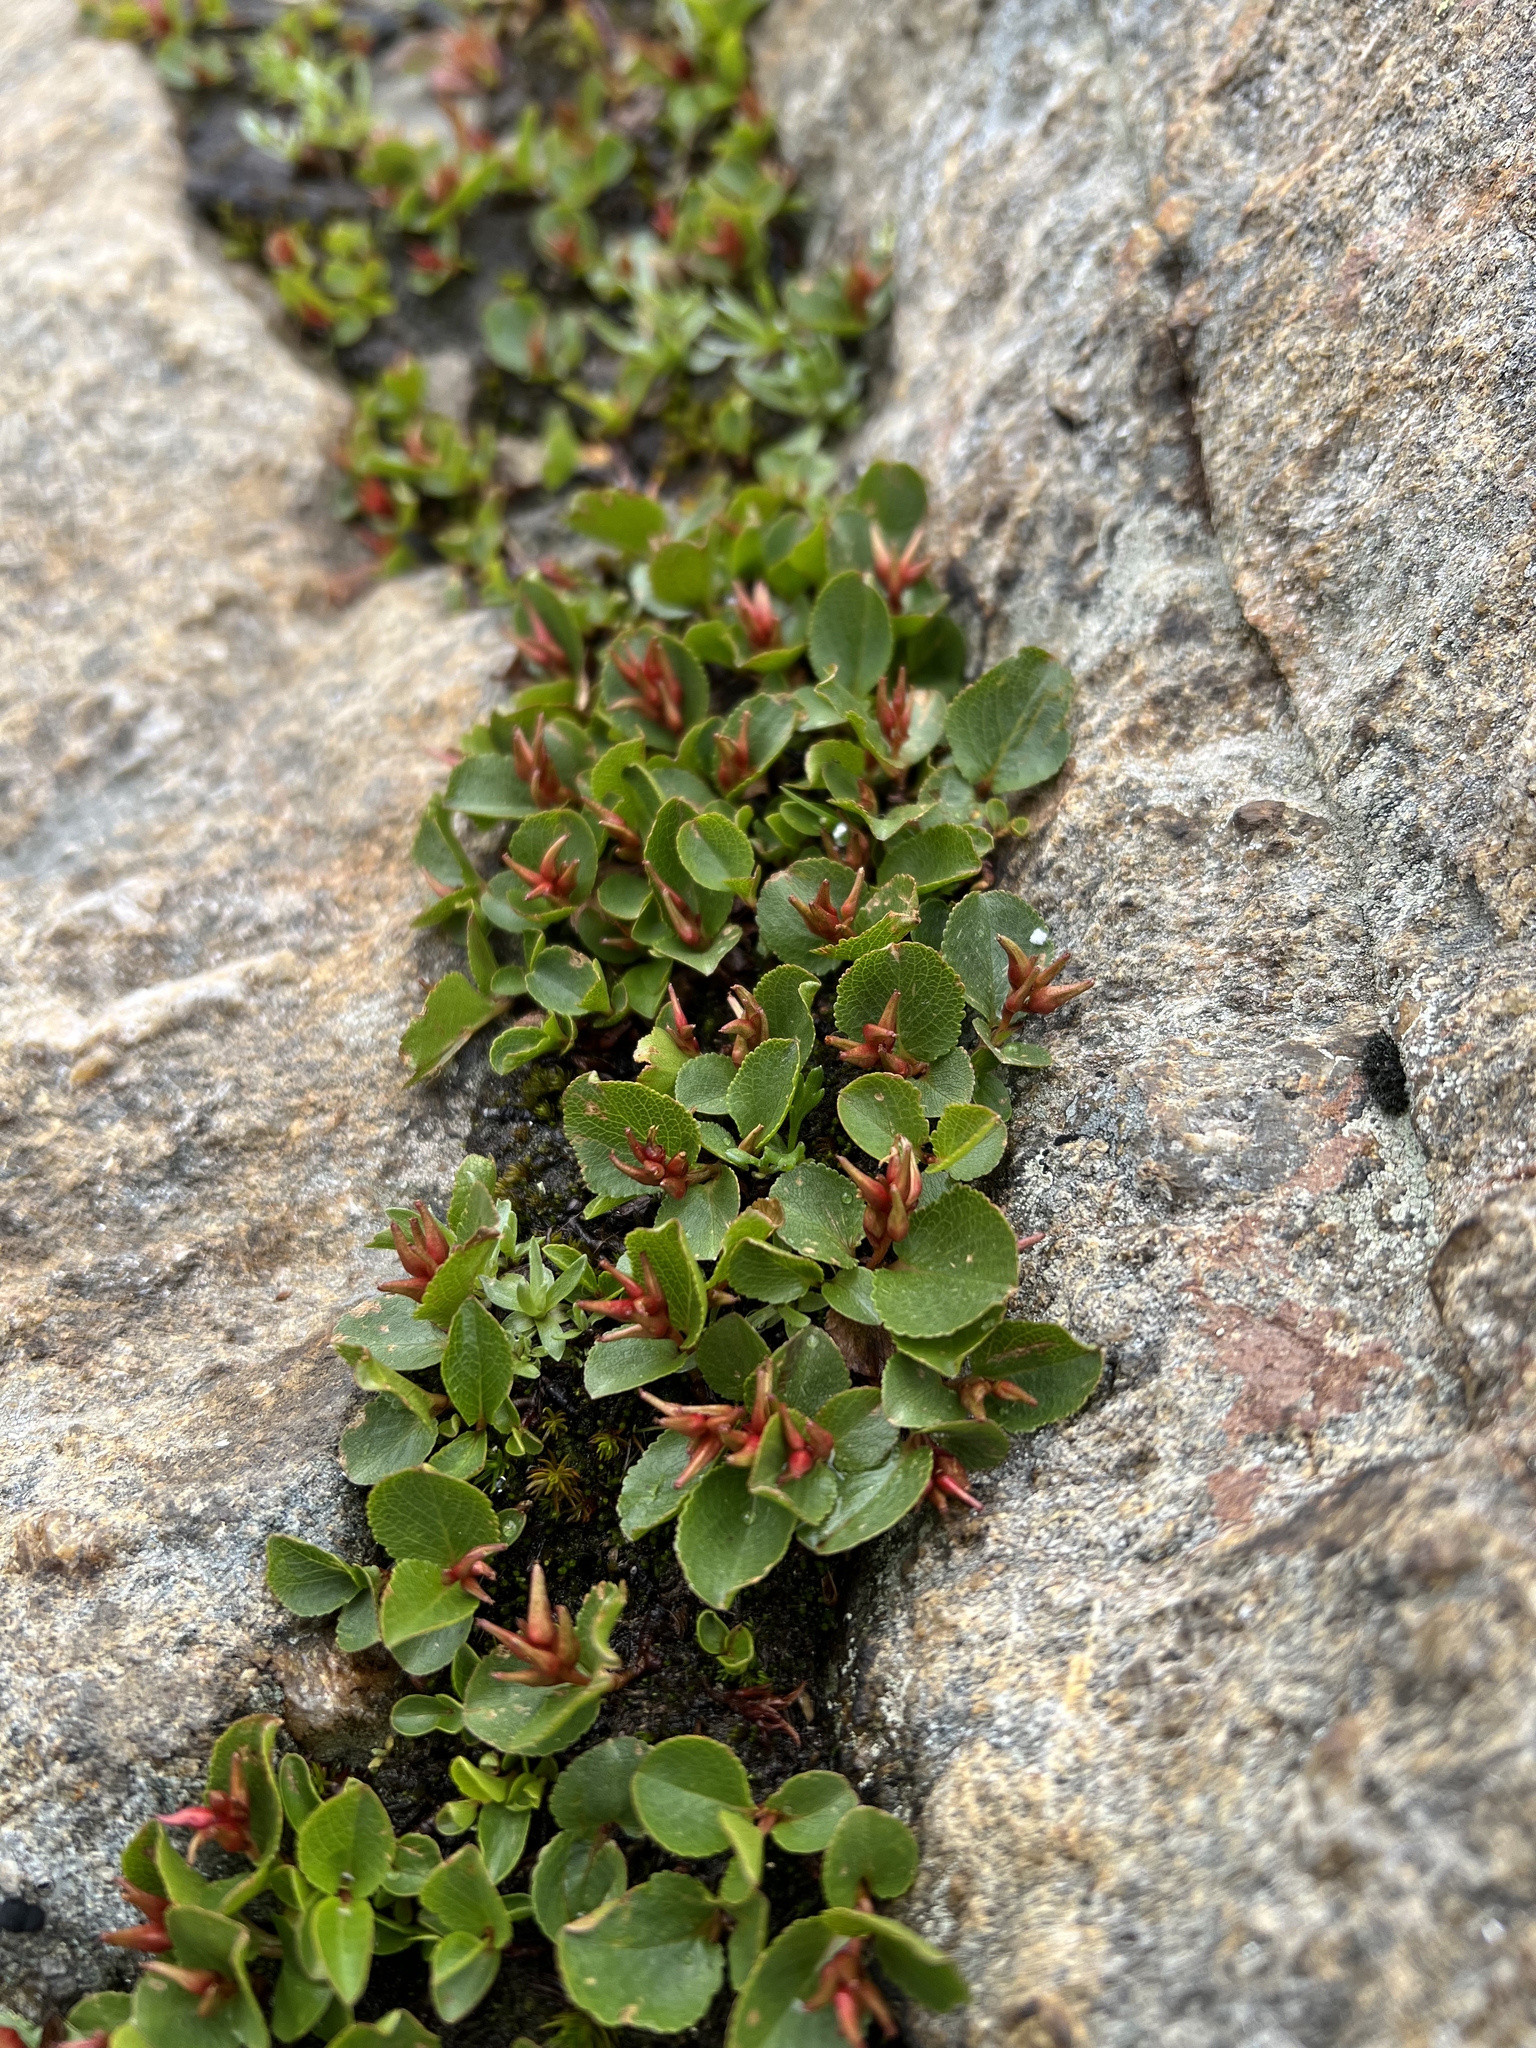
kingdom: Plantae
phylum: Tracheophyta
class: Magnoliopsida
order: Malpighiales
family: Salicaceae
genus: Salix
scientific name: Salix herbacea
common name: Dwarf willow
